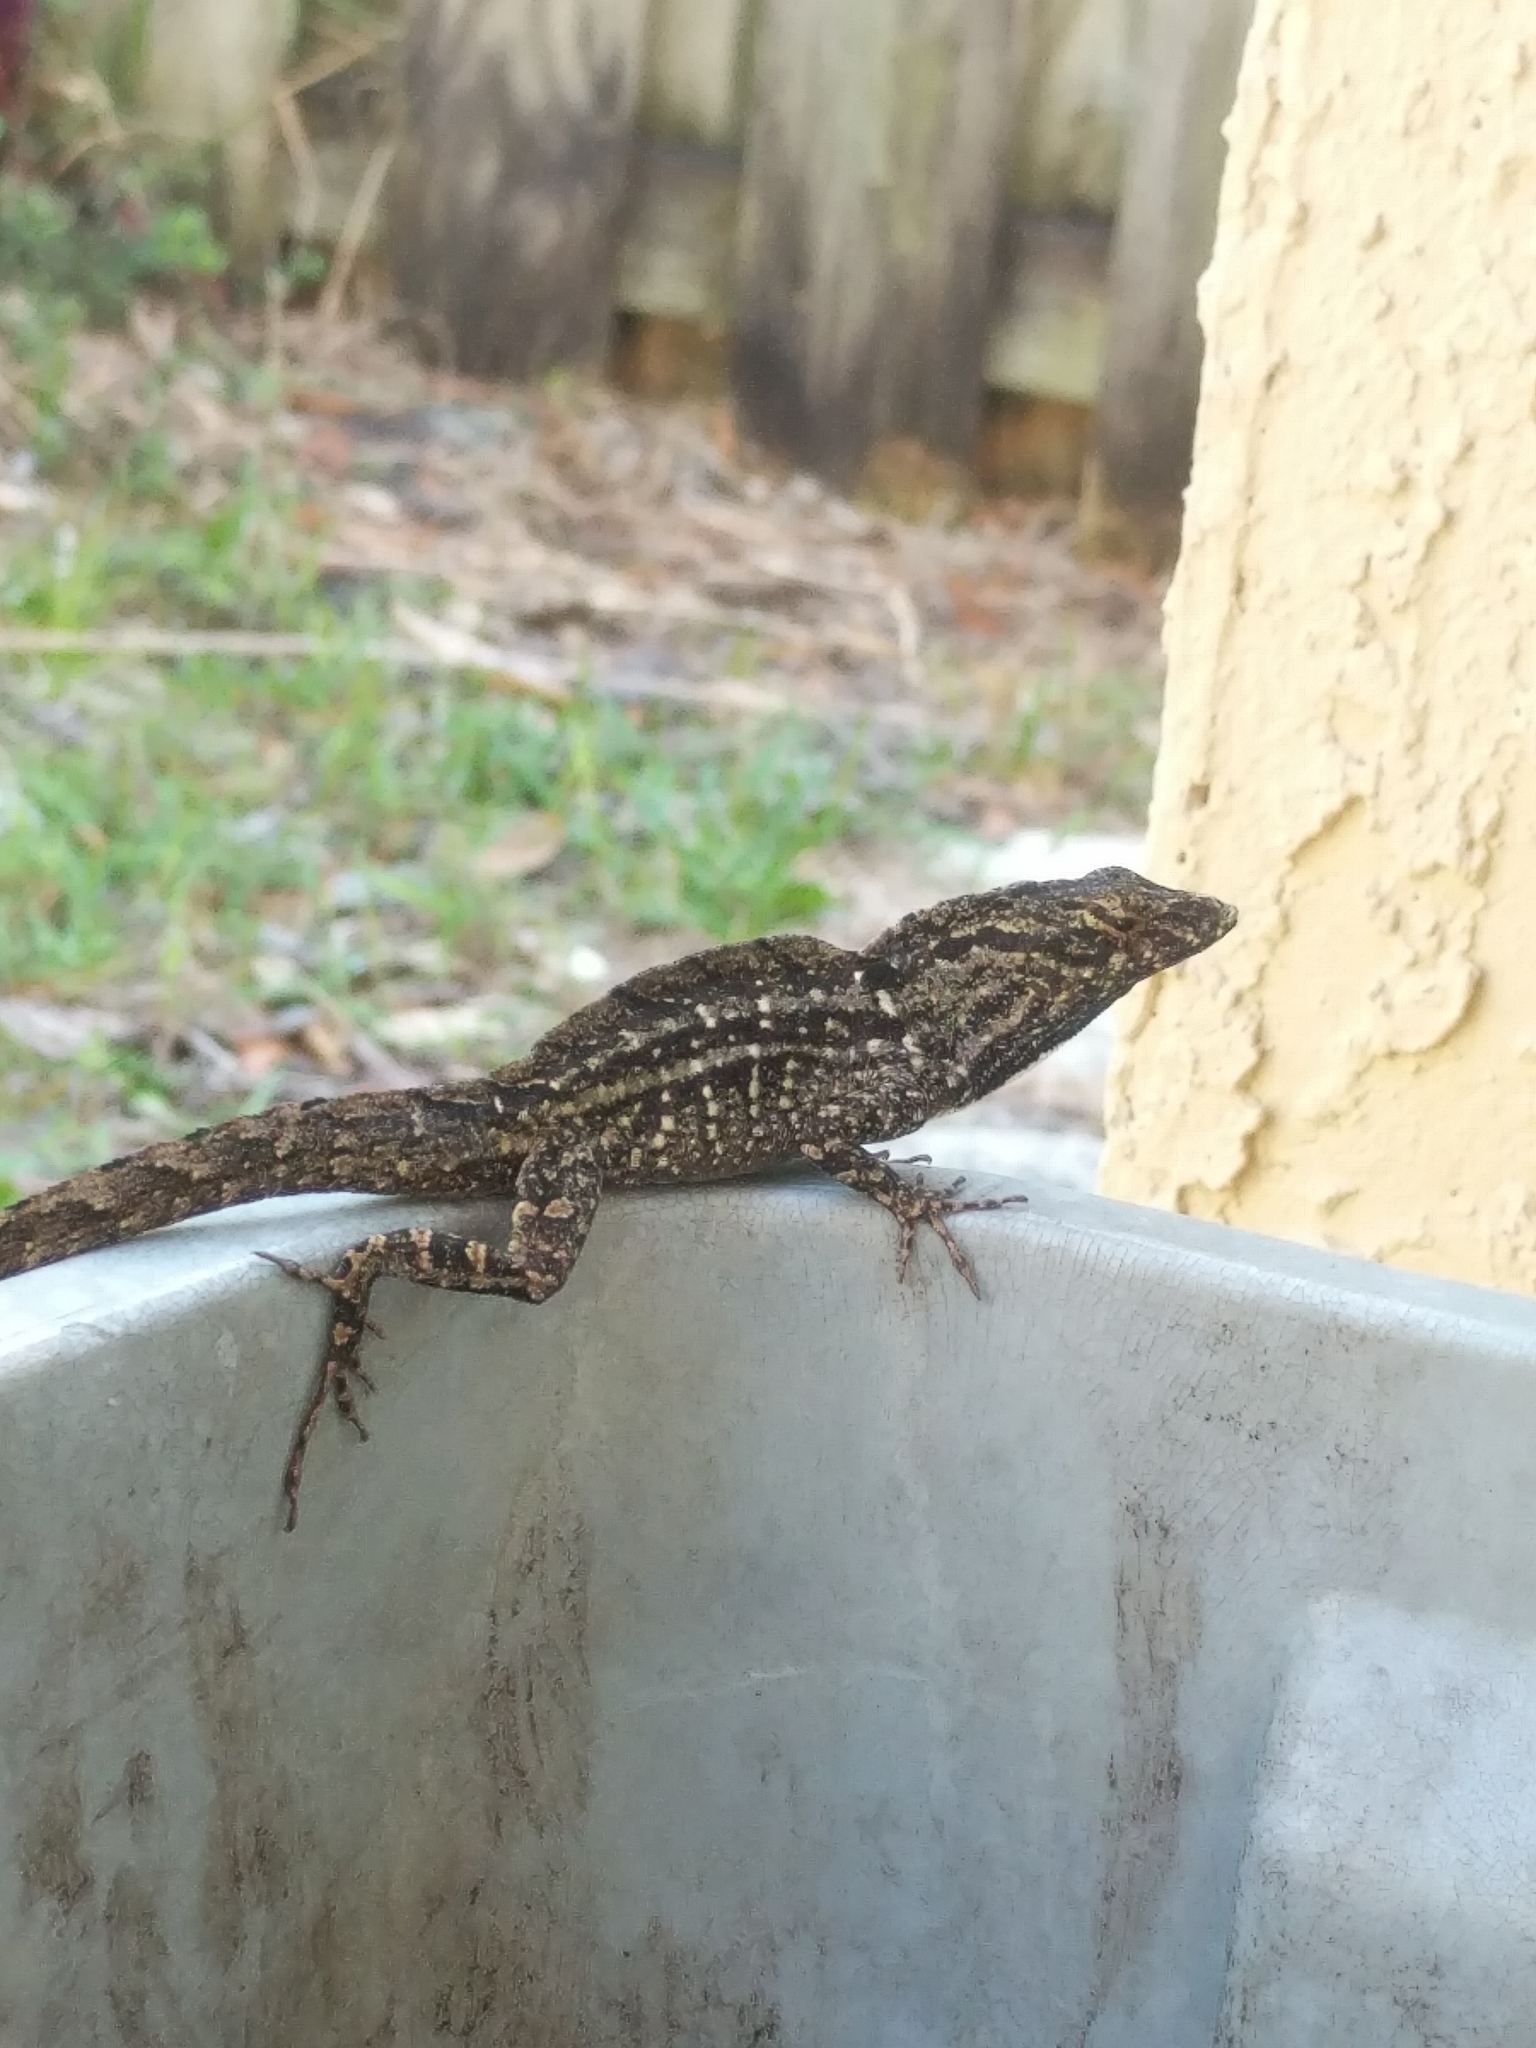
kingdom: Animalia
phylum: Chordata
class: Squamata
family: Dactyloidae
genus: Anolis
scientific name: Anolis sagrei
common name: Brown anole
